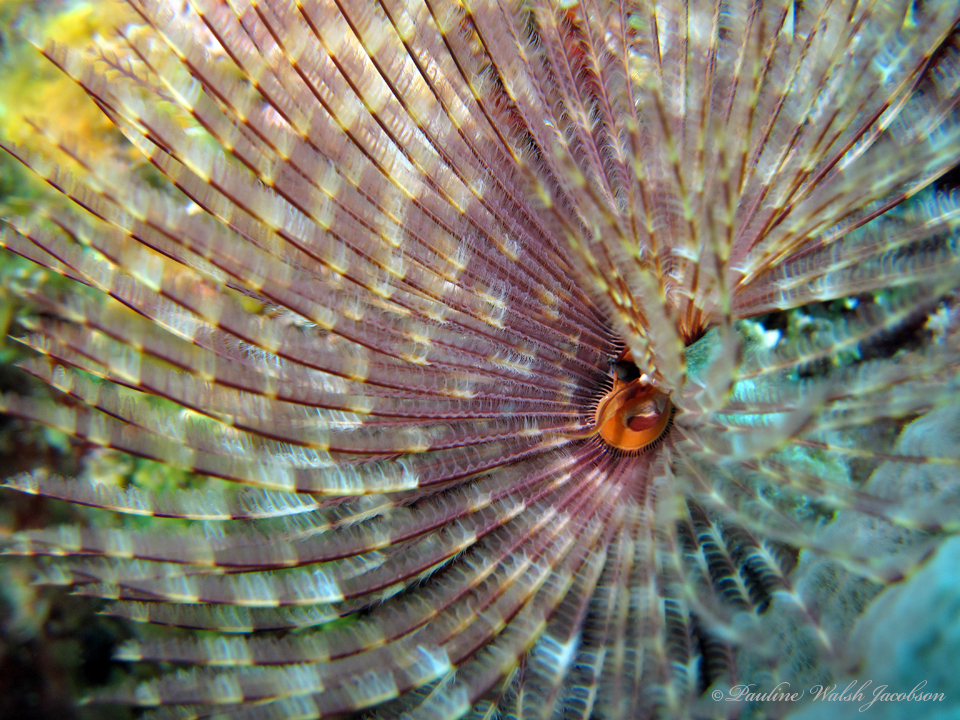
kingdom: Animalia
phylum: Annelida
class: Polychaeta
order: Sabellida
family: Sabellidae
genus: Sabellastarte
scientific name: Sabellastarte magnifica
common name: Giant feather-duster worm
